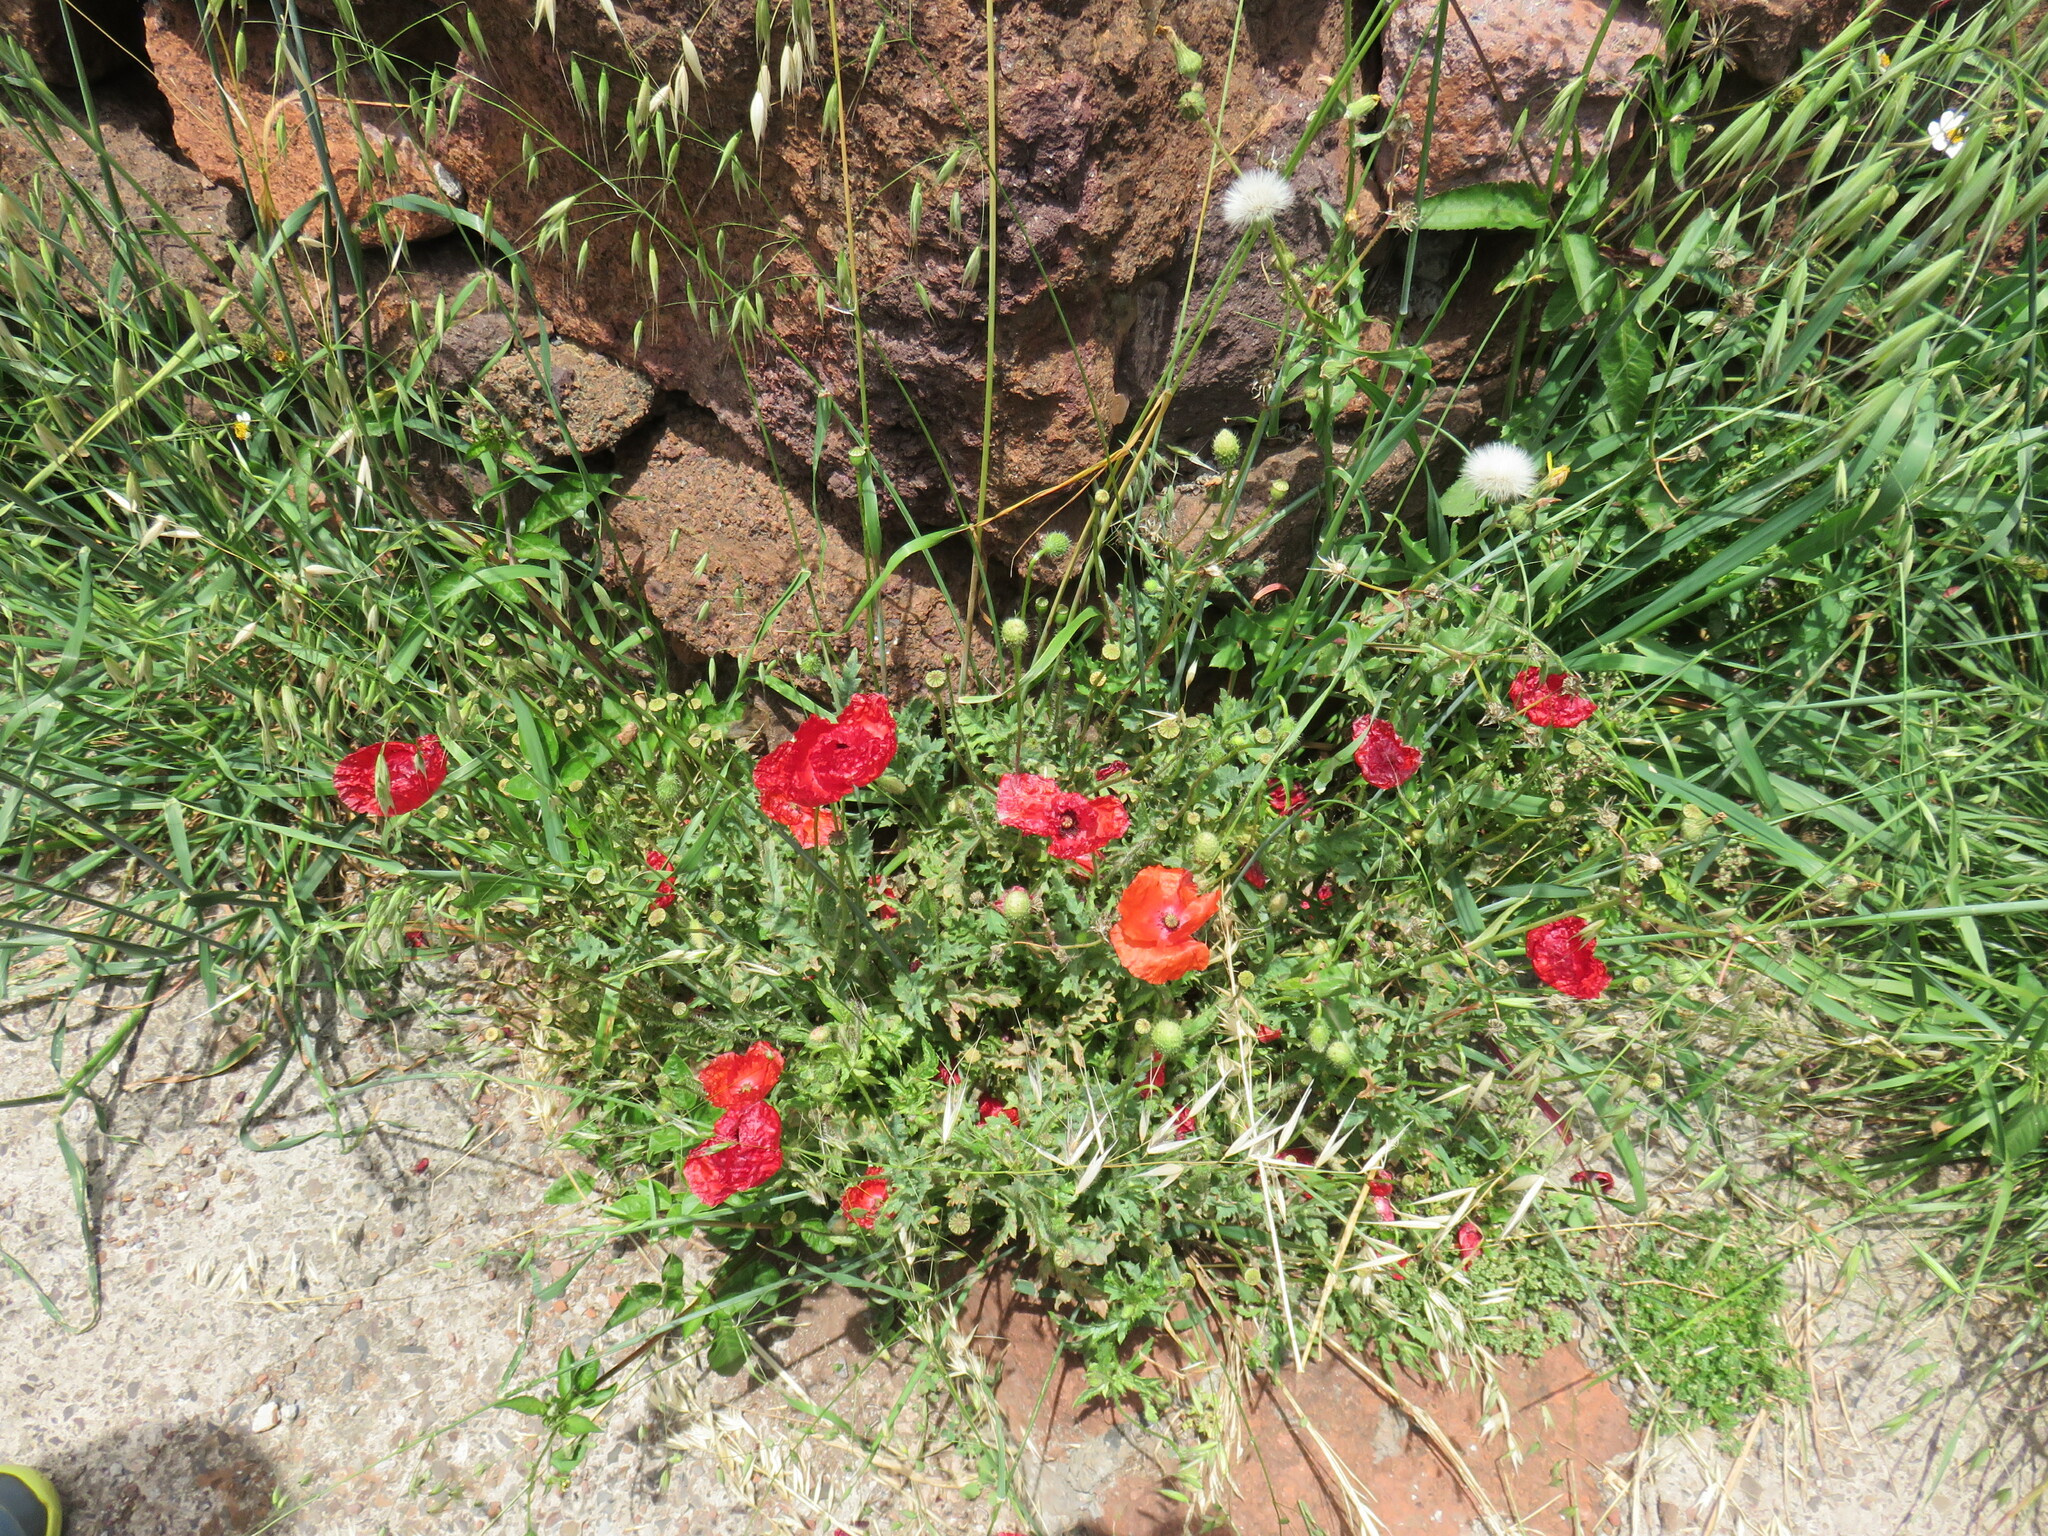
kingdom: Plantae
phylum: Tracheophyta
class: Magnoliopsida
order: Ranunculales
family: Papaveraceae
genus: Papaver
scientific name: Papaver rhoeas
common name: Corn poppy
